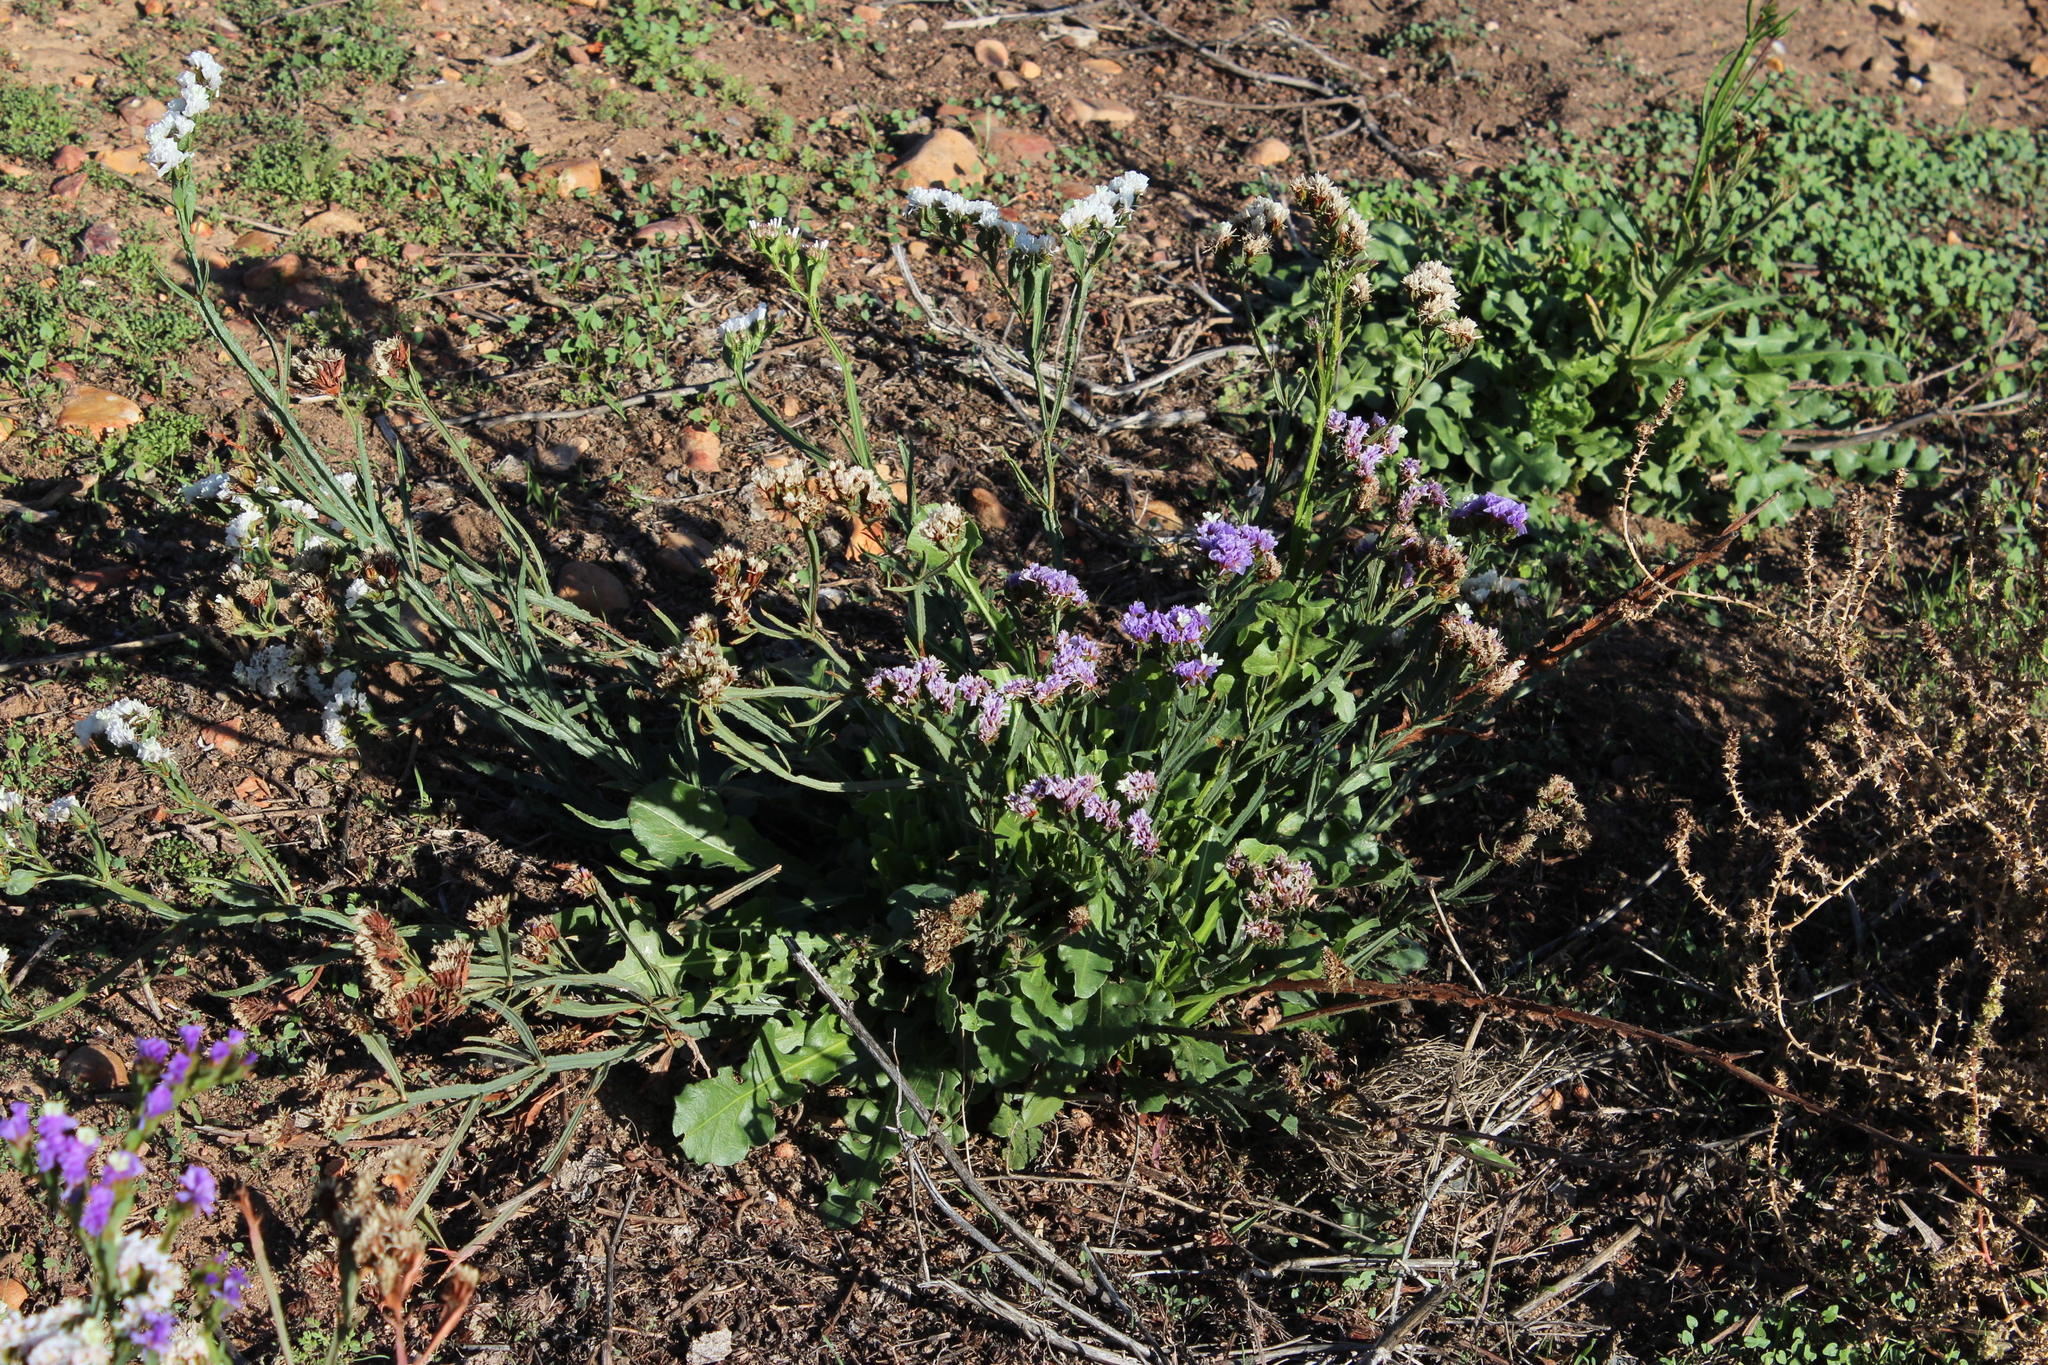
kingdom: Plantae
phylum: Tracheophyta
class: Magnoliopsida
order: Caryophyllales
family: Plumbaginaceae
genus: Limonium
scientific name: Limonium sinuatum
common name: Statice
